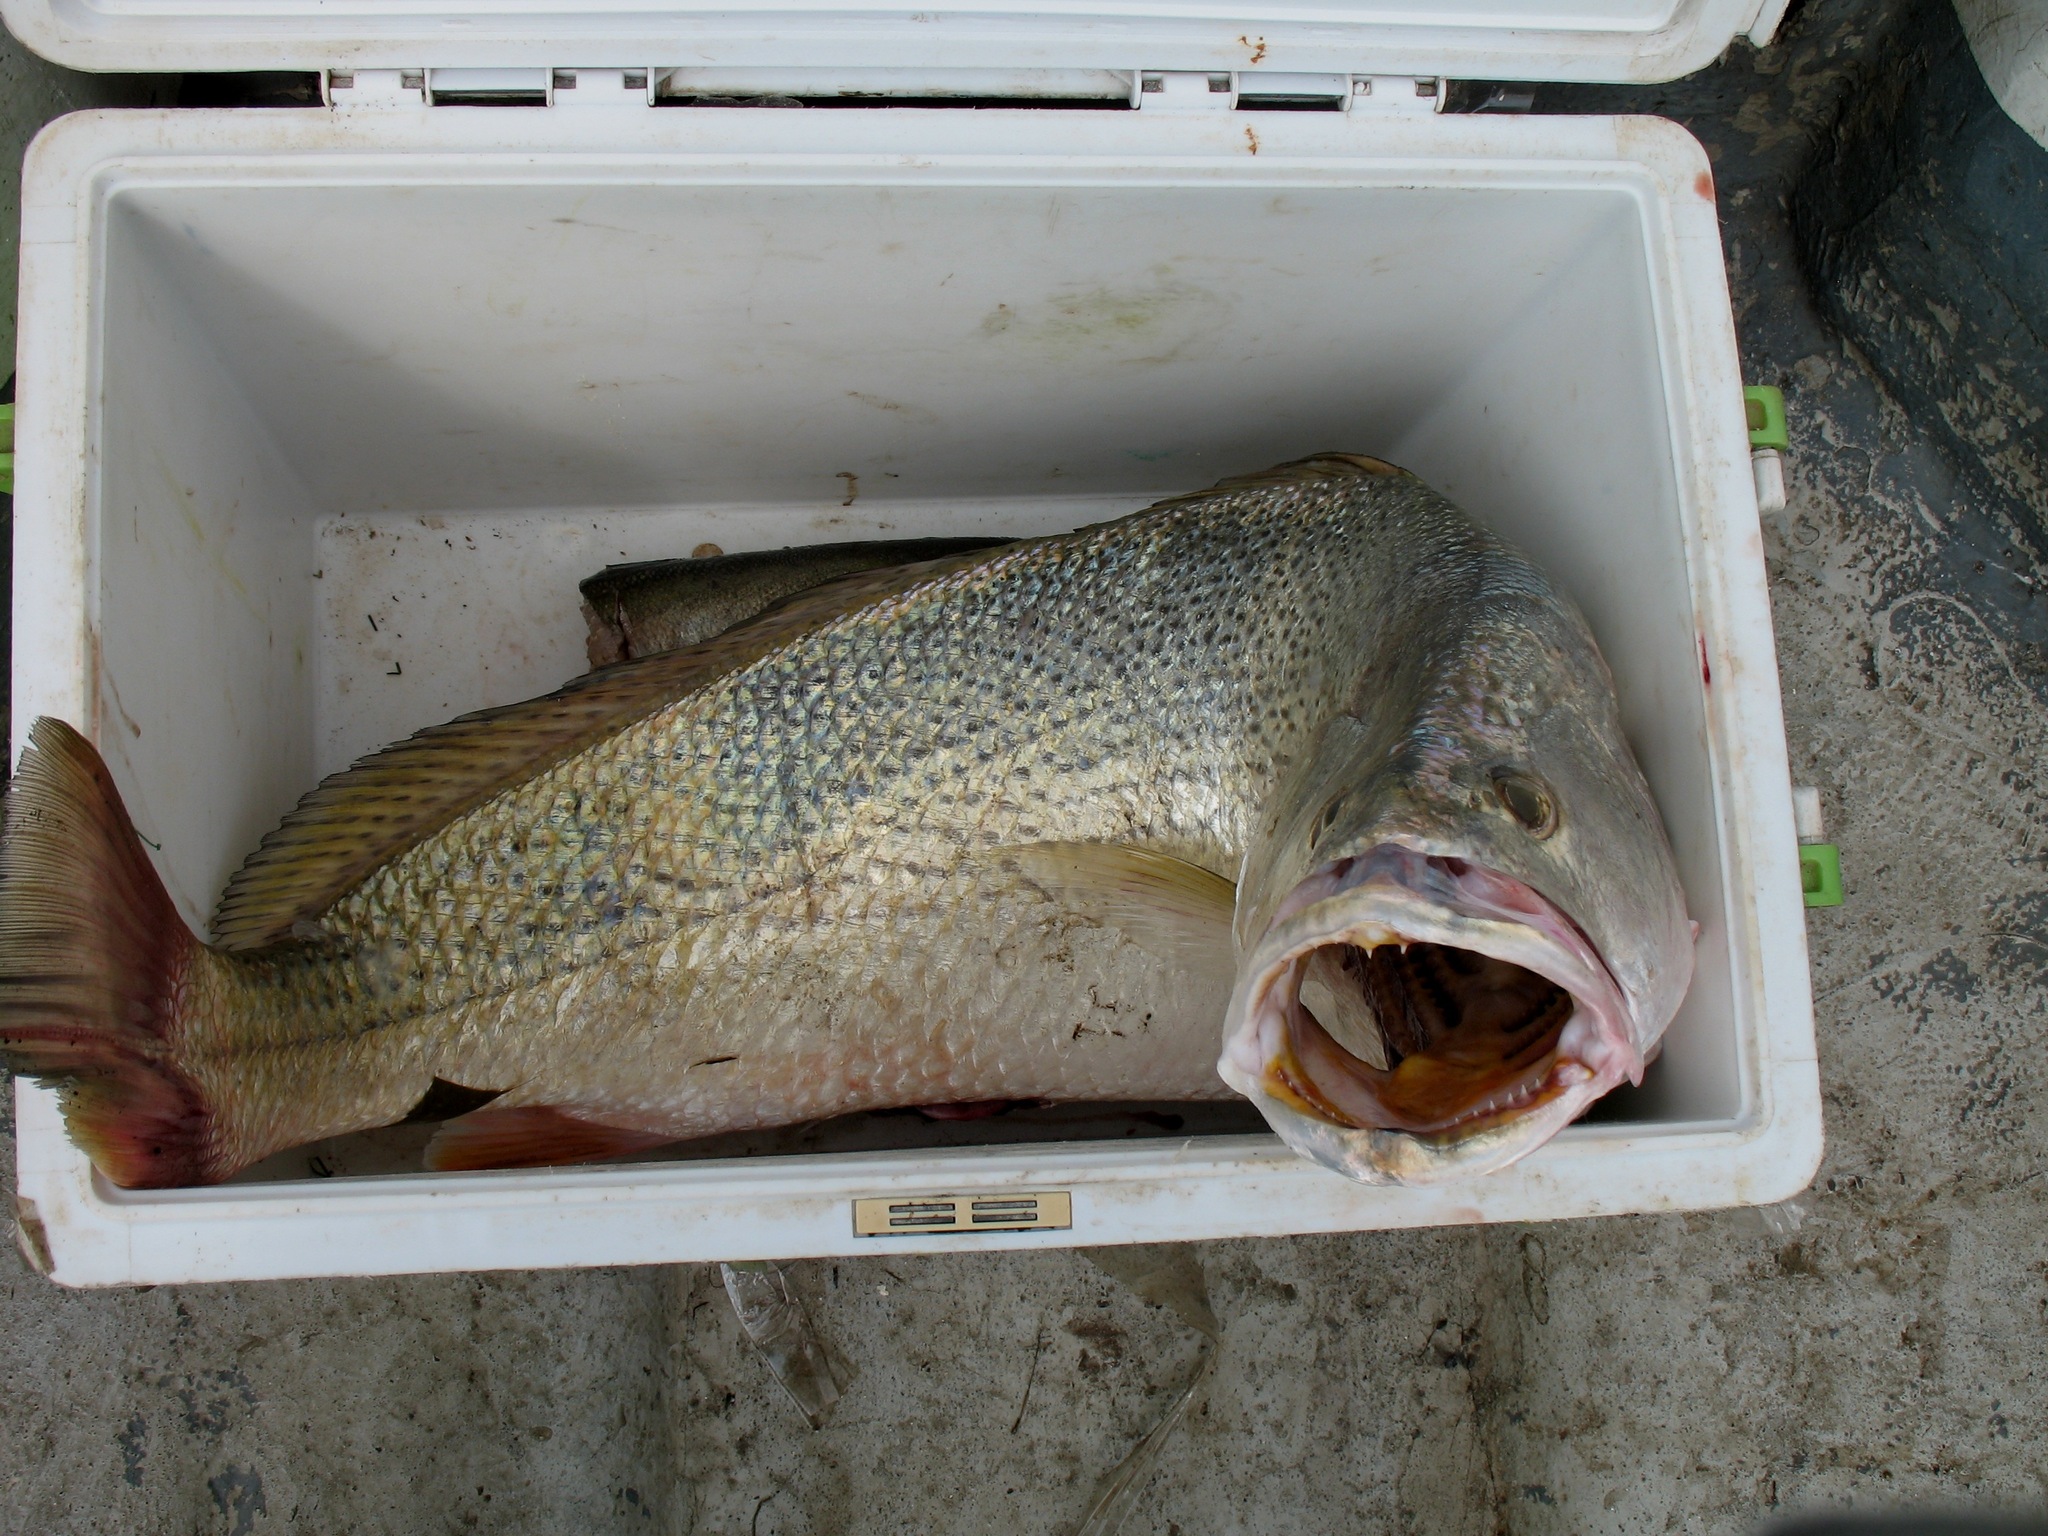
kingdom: Animalia
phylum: Chordata
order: Perciformes
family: Sciaenidae
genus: Pseudotolithus
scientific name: Pseudotolithus senegallus
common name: Law croaker
